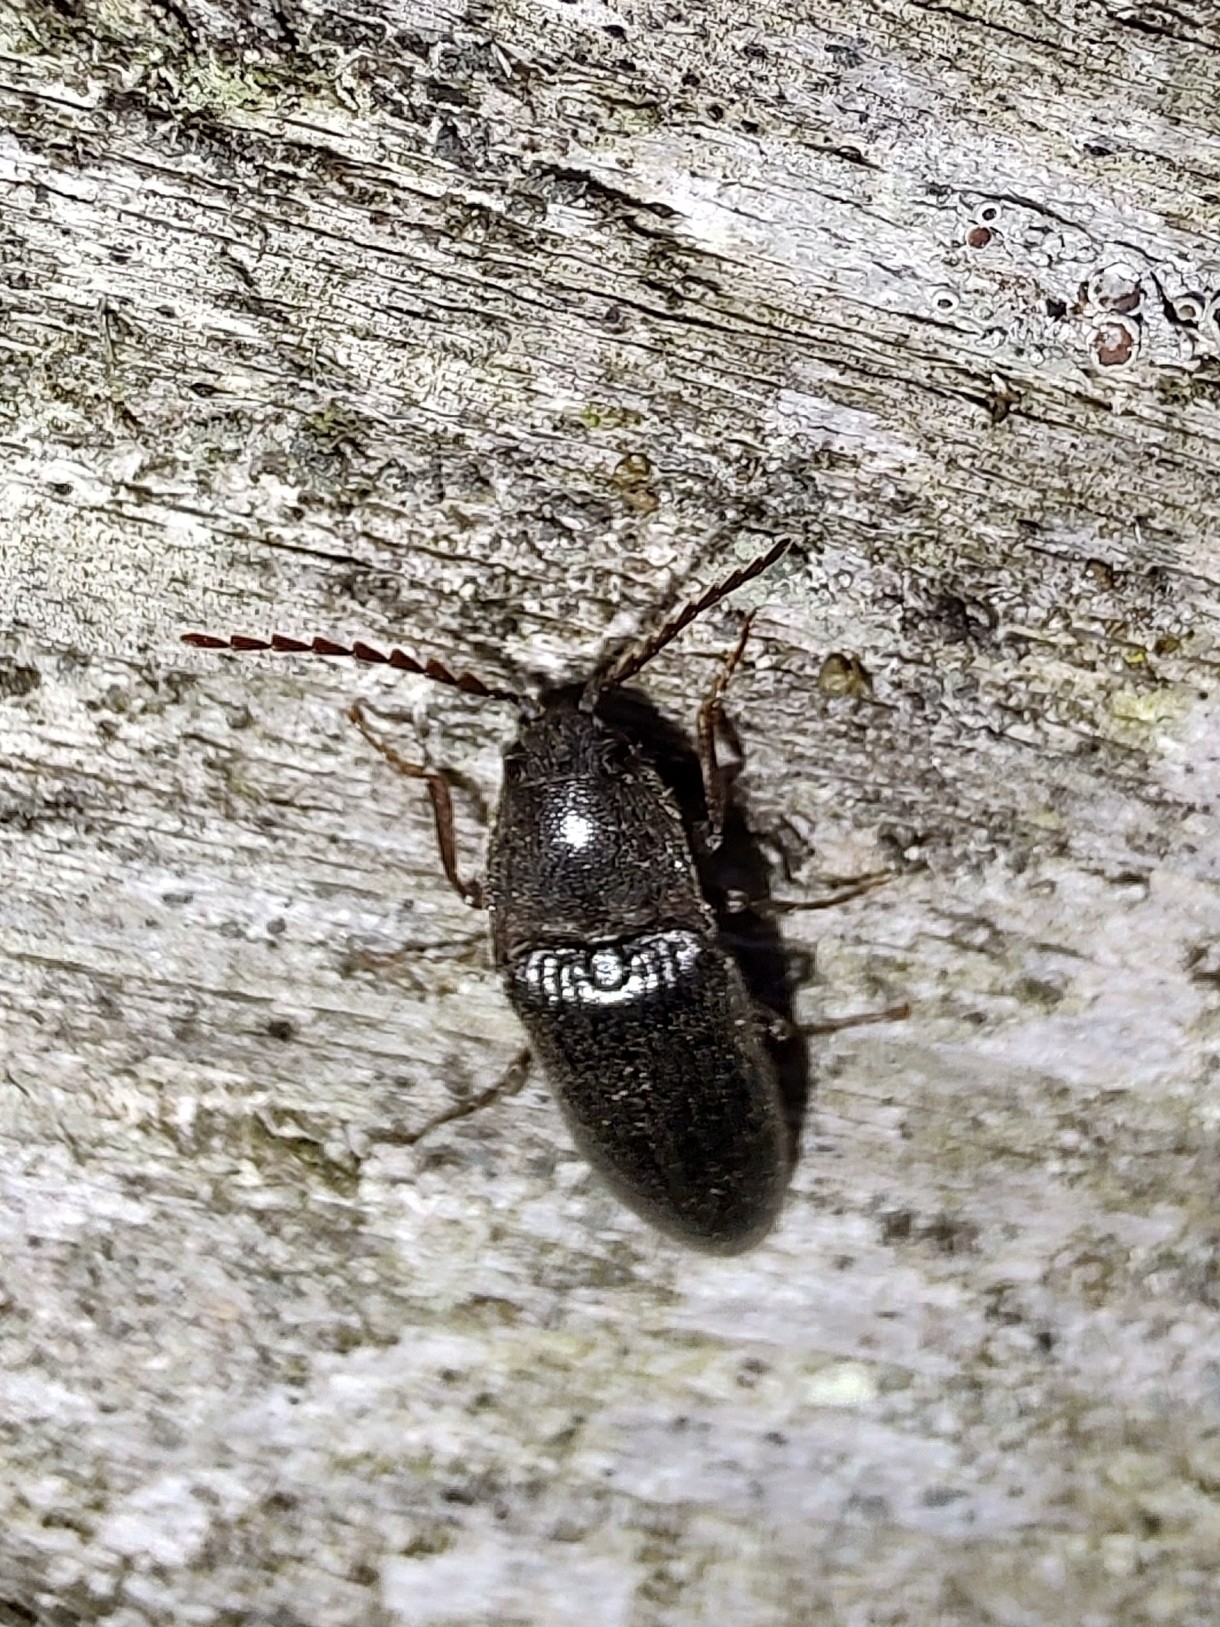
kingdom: Animalia
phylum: Arthropoda
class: Insecta
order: Coleoptera
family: Elateridae
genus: Melanotus
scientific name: Melanotus castanipes
